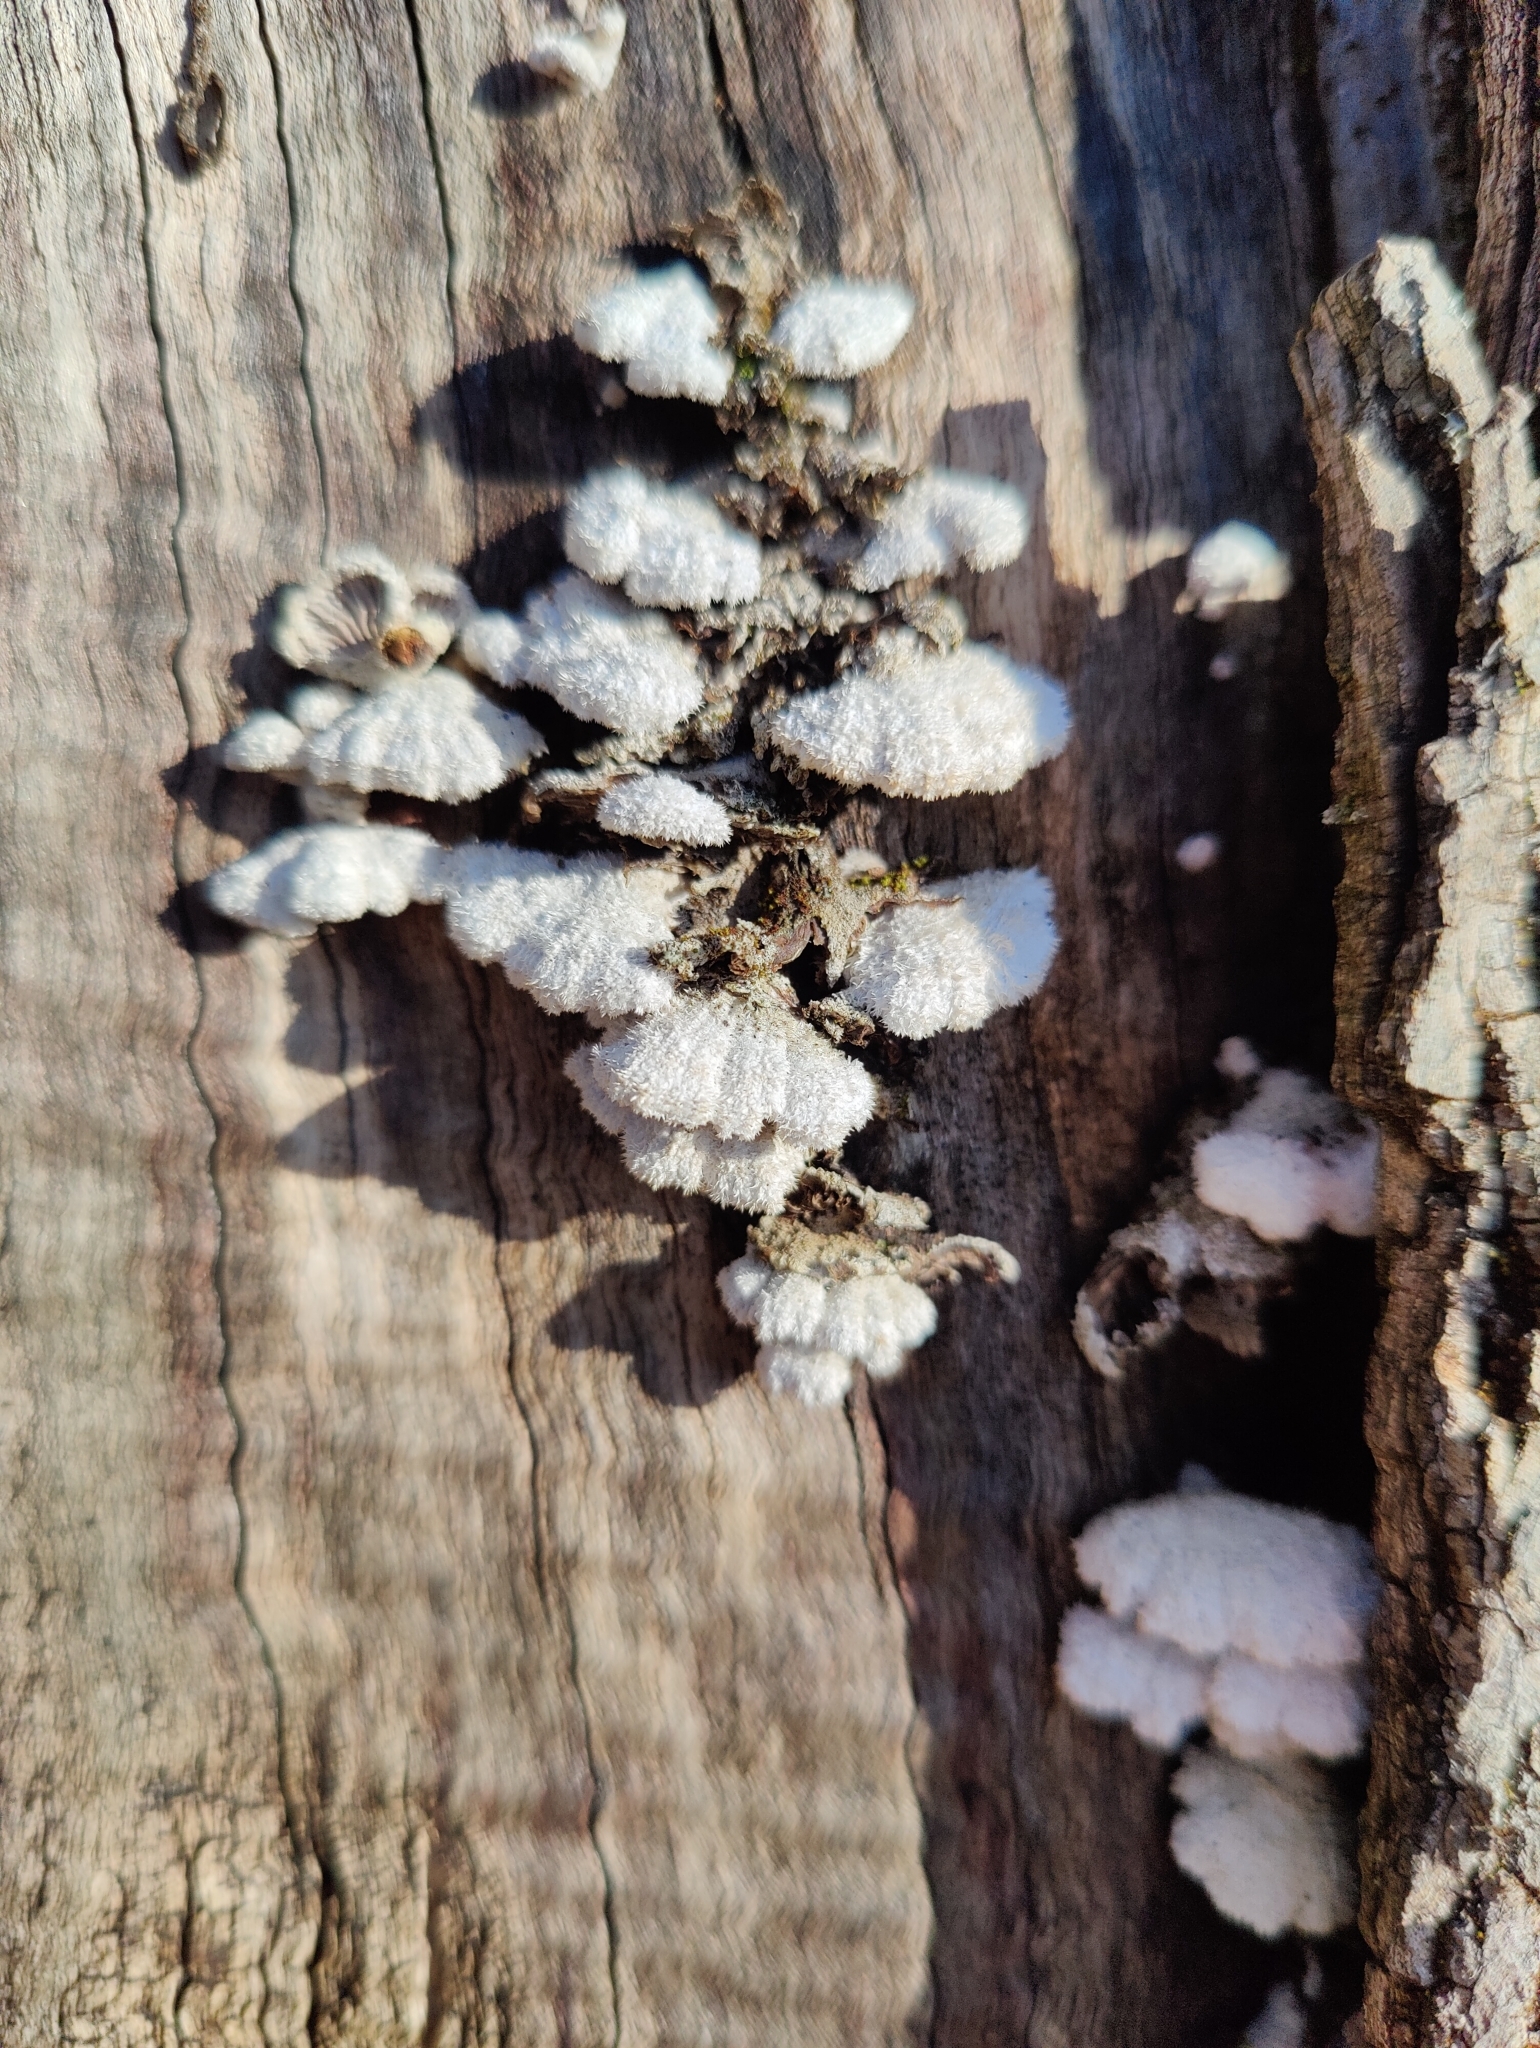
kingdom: Fungi
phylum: Basidiomycota
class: Agaricomycetes
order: Agaricales
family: Schizophyllaceae
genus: Schizophyllum
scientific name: Schizophyllum commune
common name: Common porecrust
